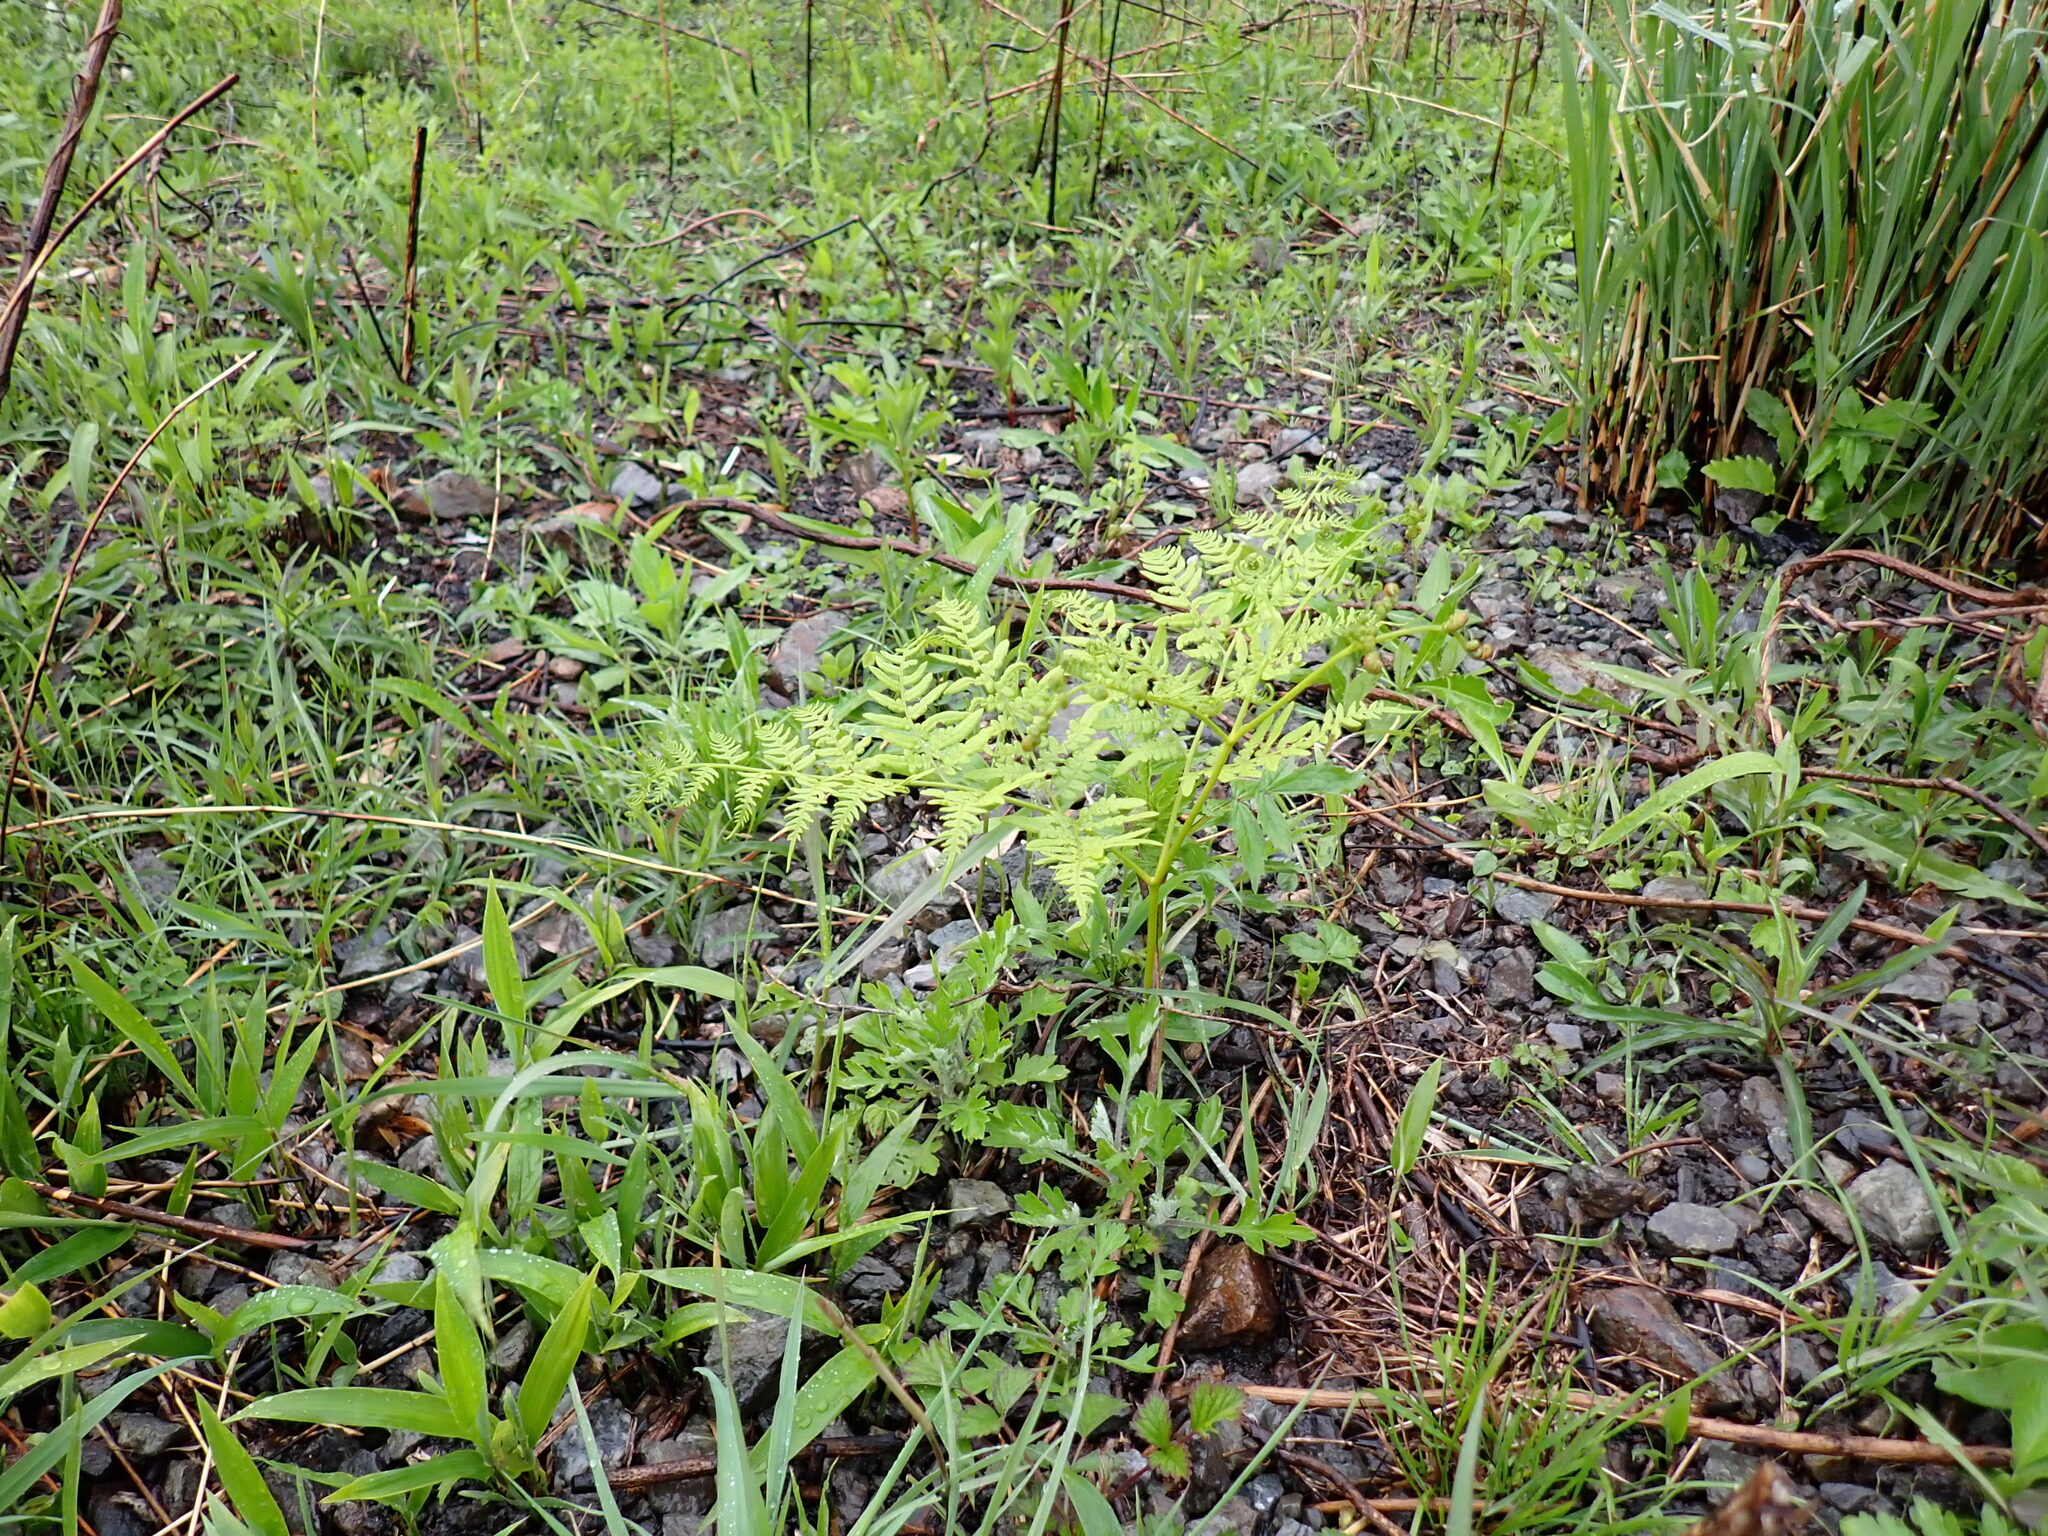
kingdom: Plantae
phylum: Tracheophyta
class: Polypodiopsida
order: Polypodiales
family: Dennstaedtiaceae
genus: Pteridium
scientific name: Pteridium aquilinum
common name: Bracken
